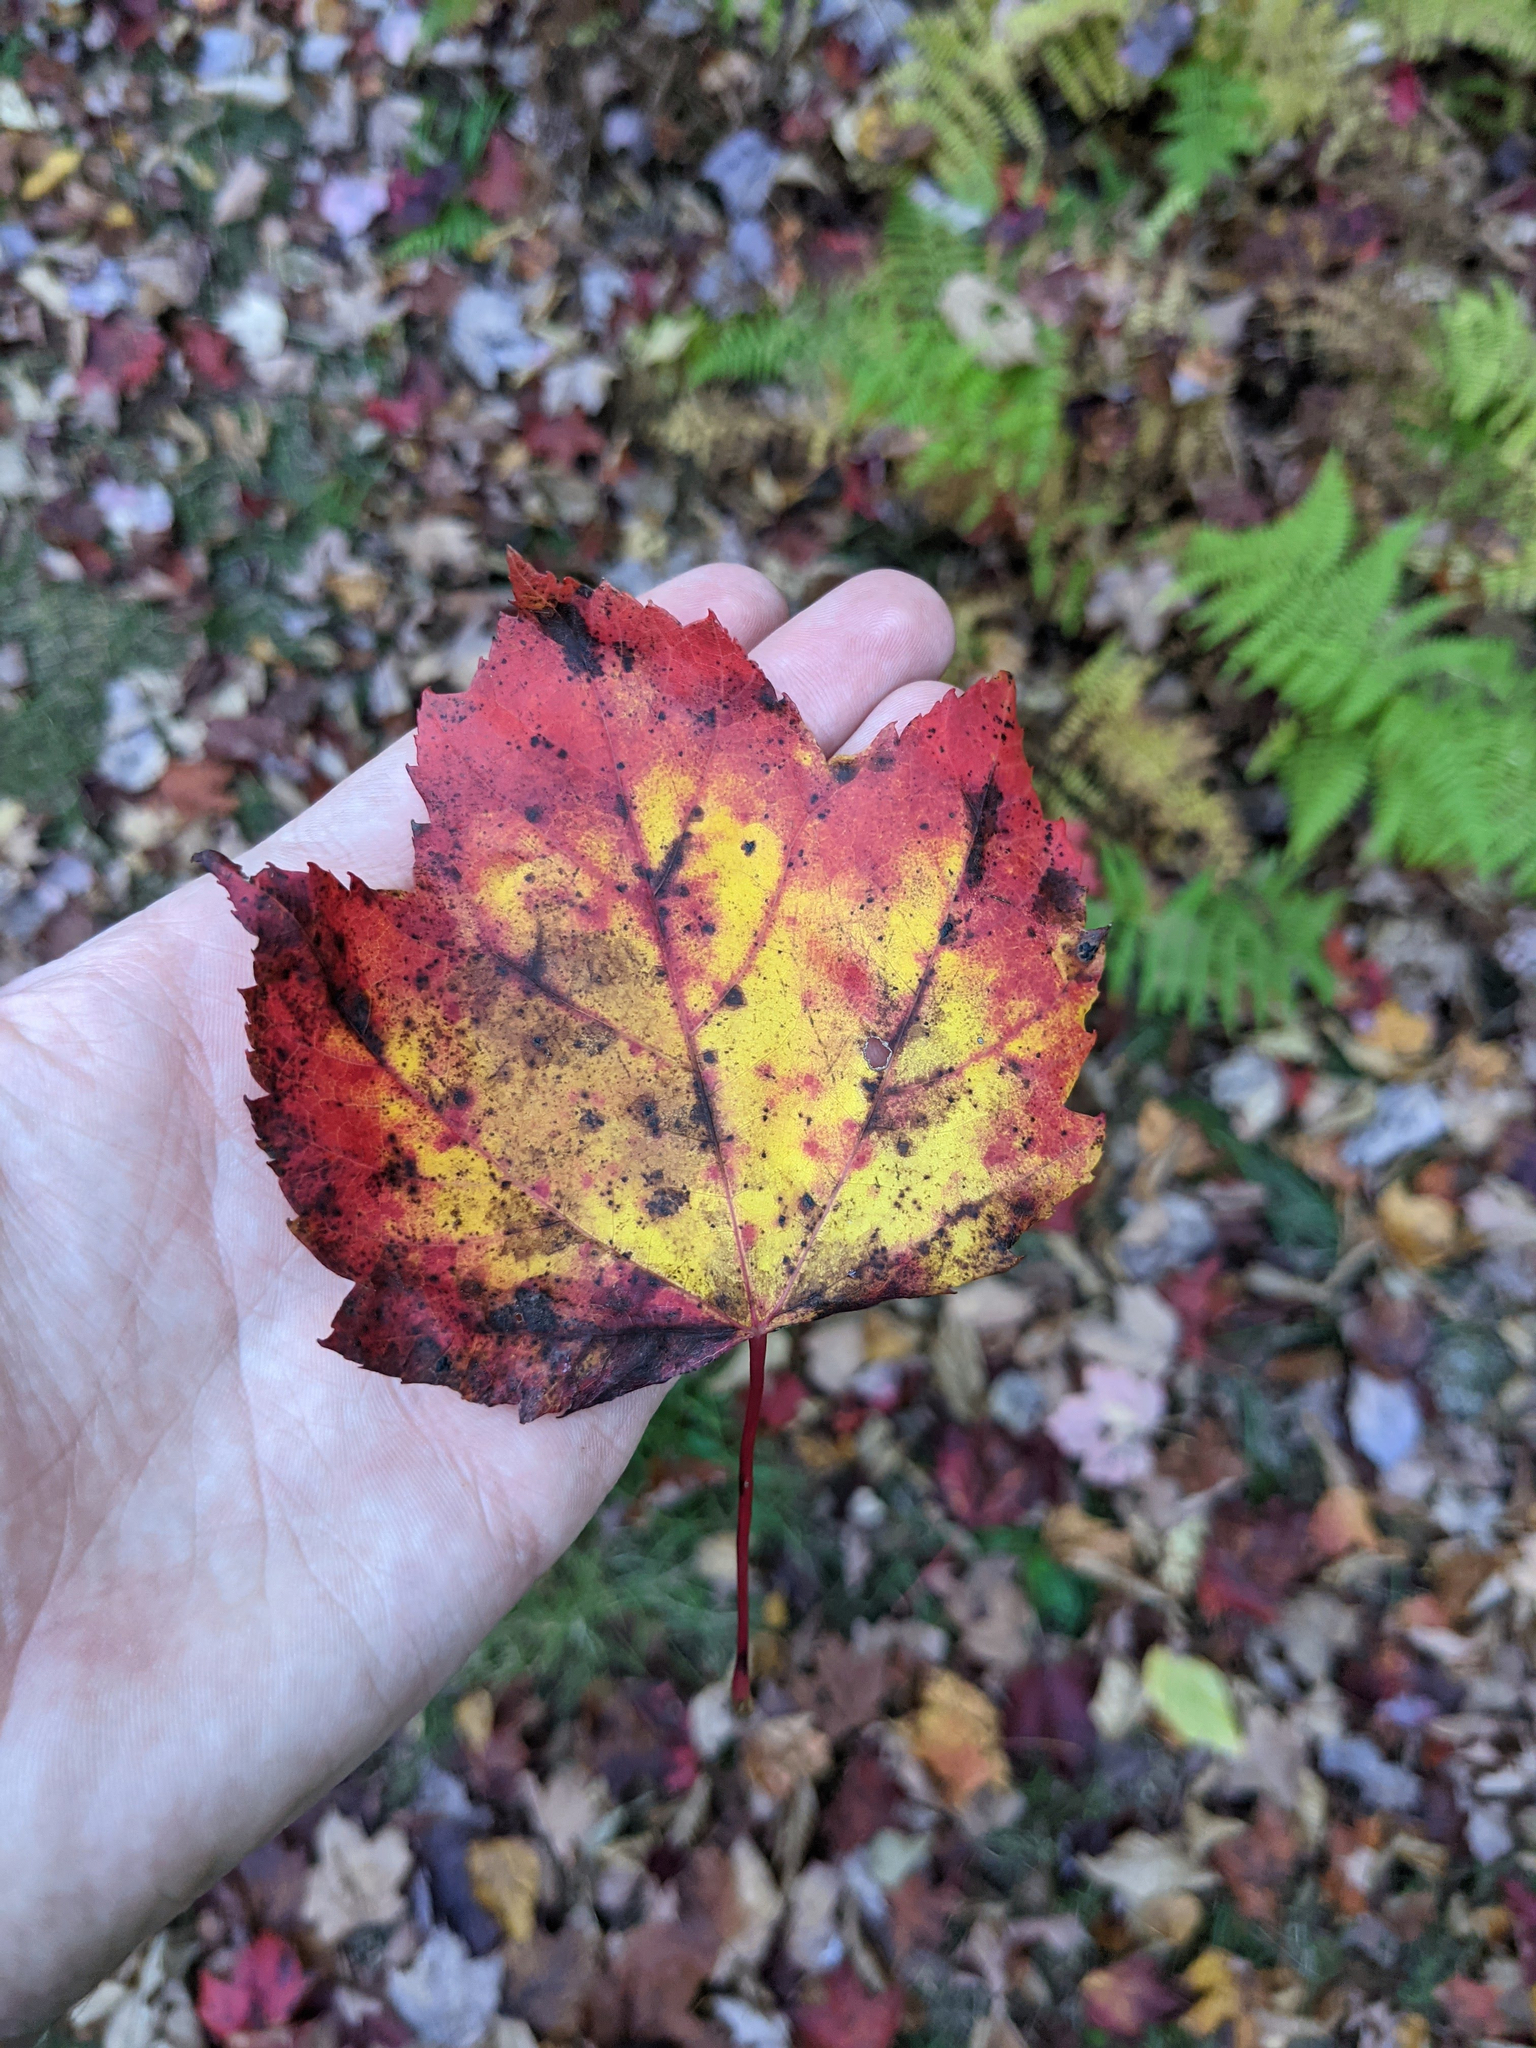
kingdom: Plantae
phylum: Tracheophyta
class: Magnoliopsida
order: Sapindales
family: Sapindaceae
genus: Acer
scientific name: Acer rubrum
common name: Red maple
